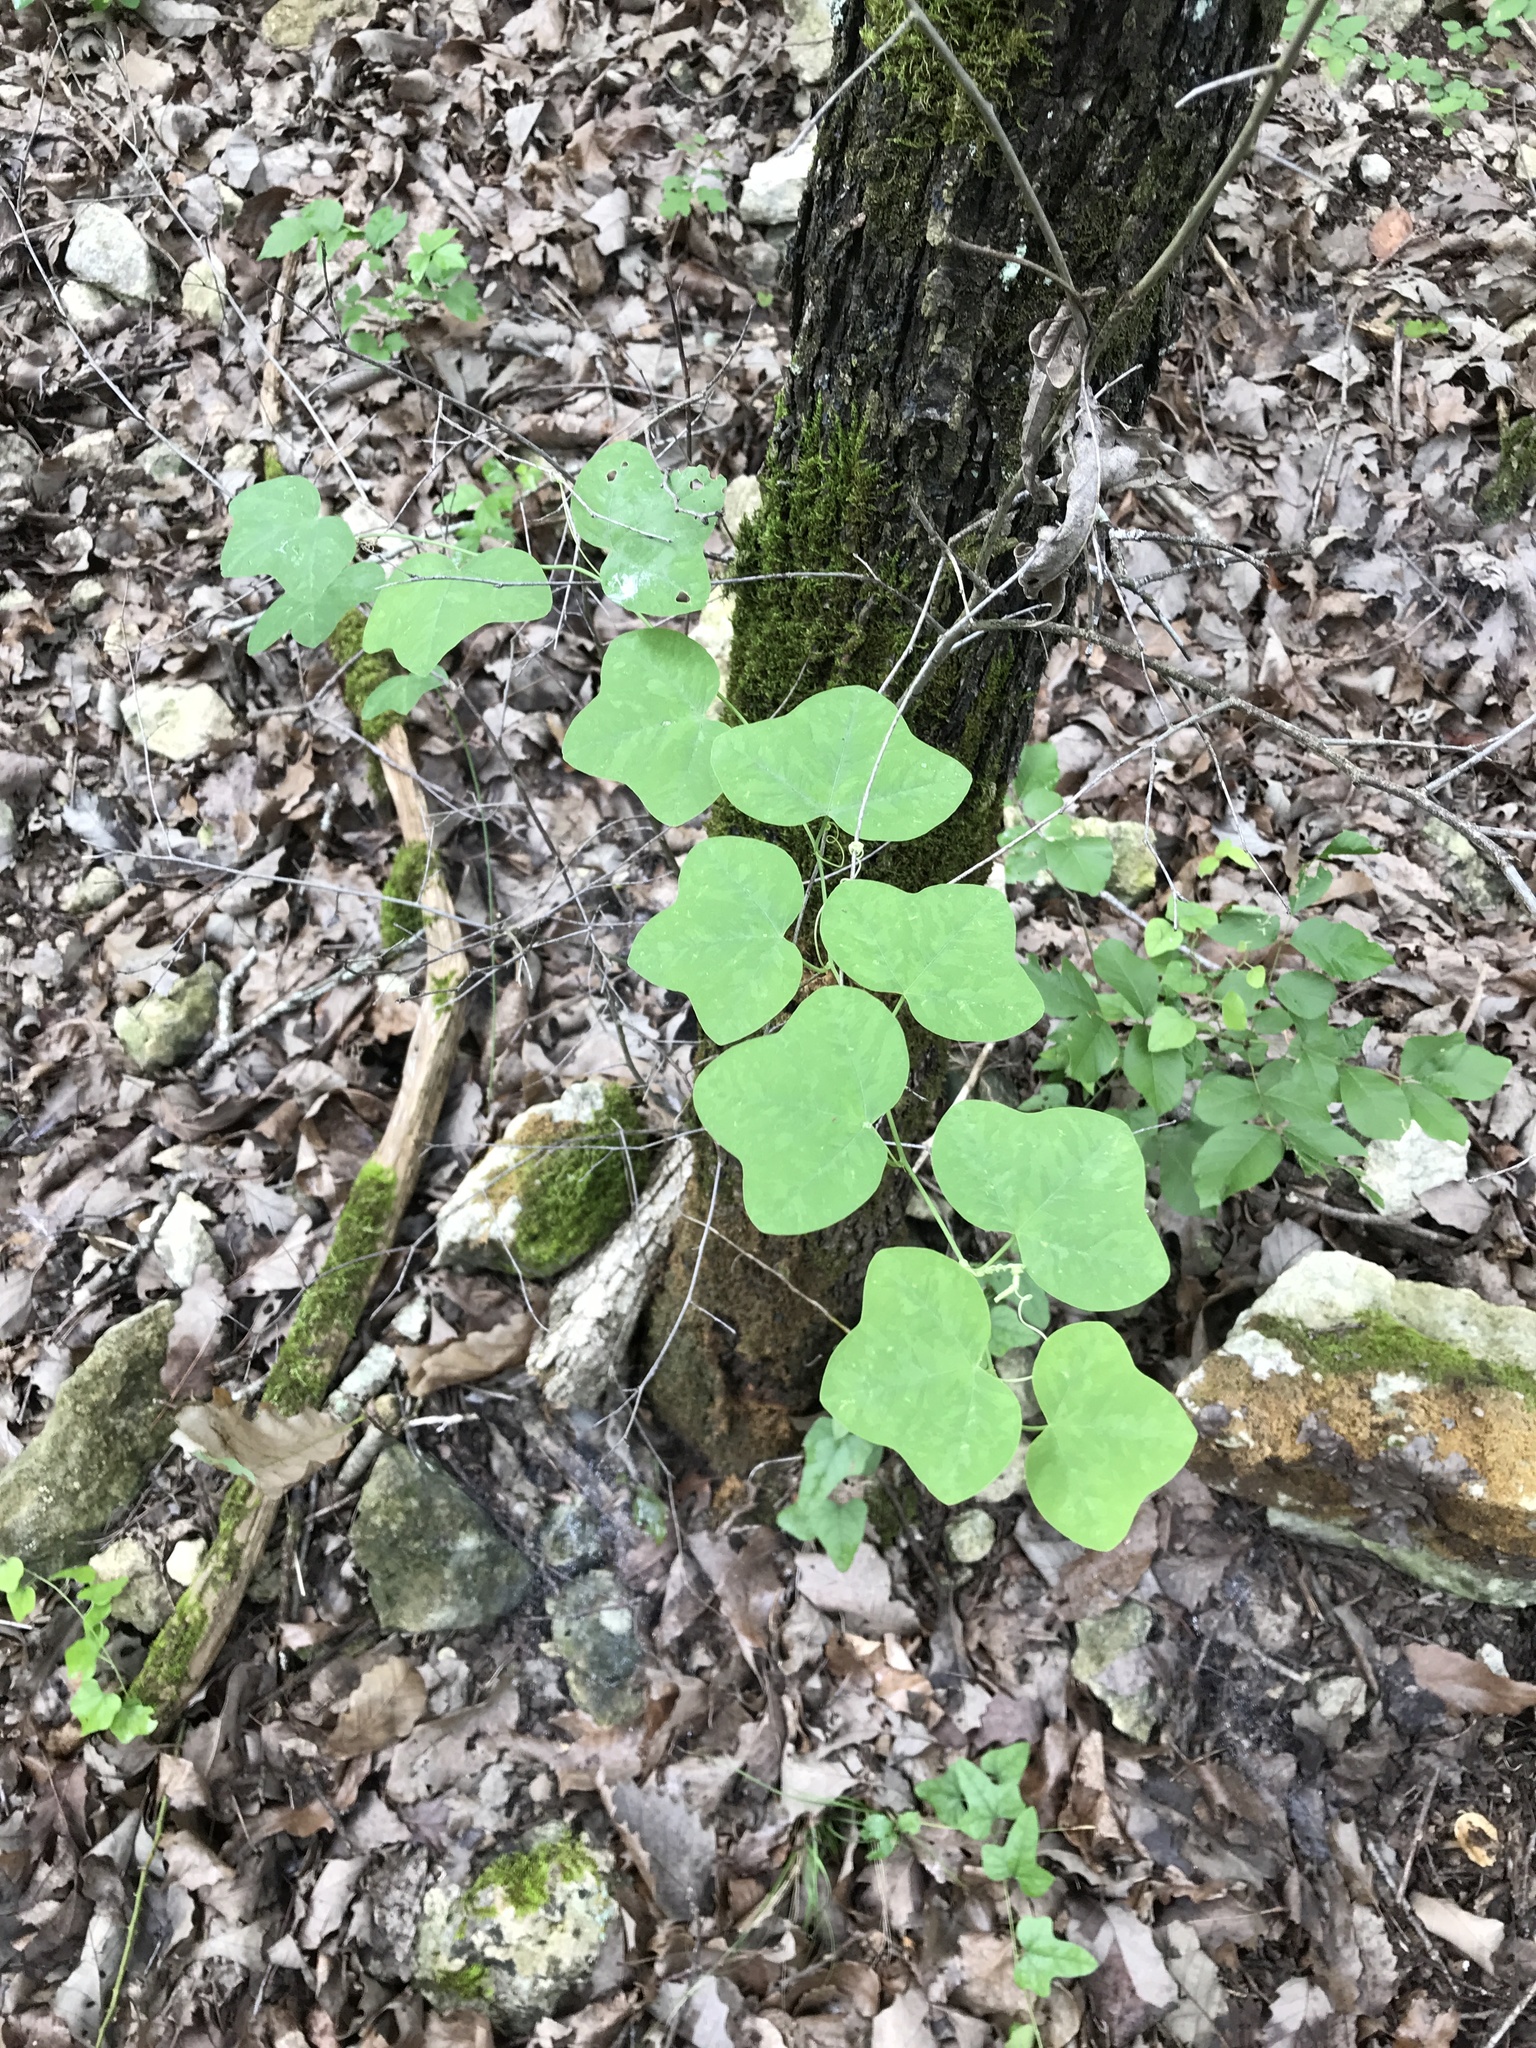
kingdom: Plantae
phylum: Tracheophyta
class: Magnoliopsida
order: Malpighiales
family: Passifloraceae
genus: Passiflora
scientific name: Passiflora lutea
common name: Yellow passionflower
